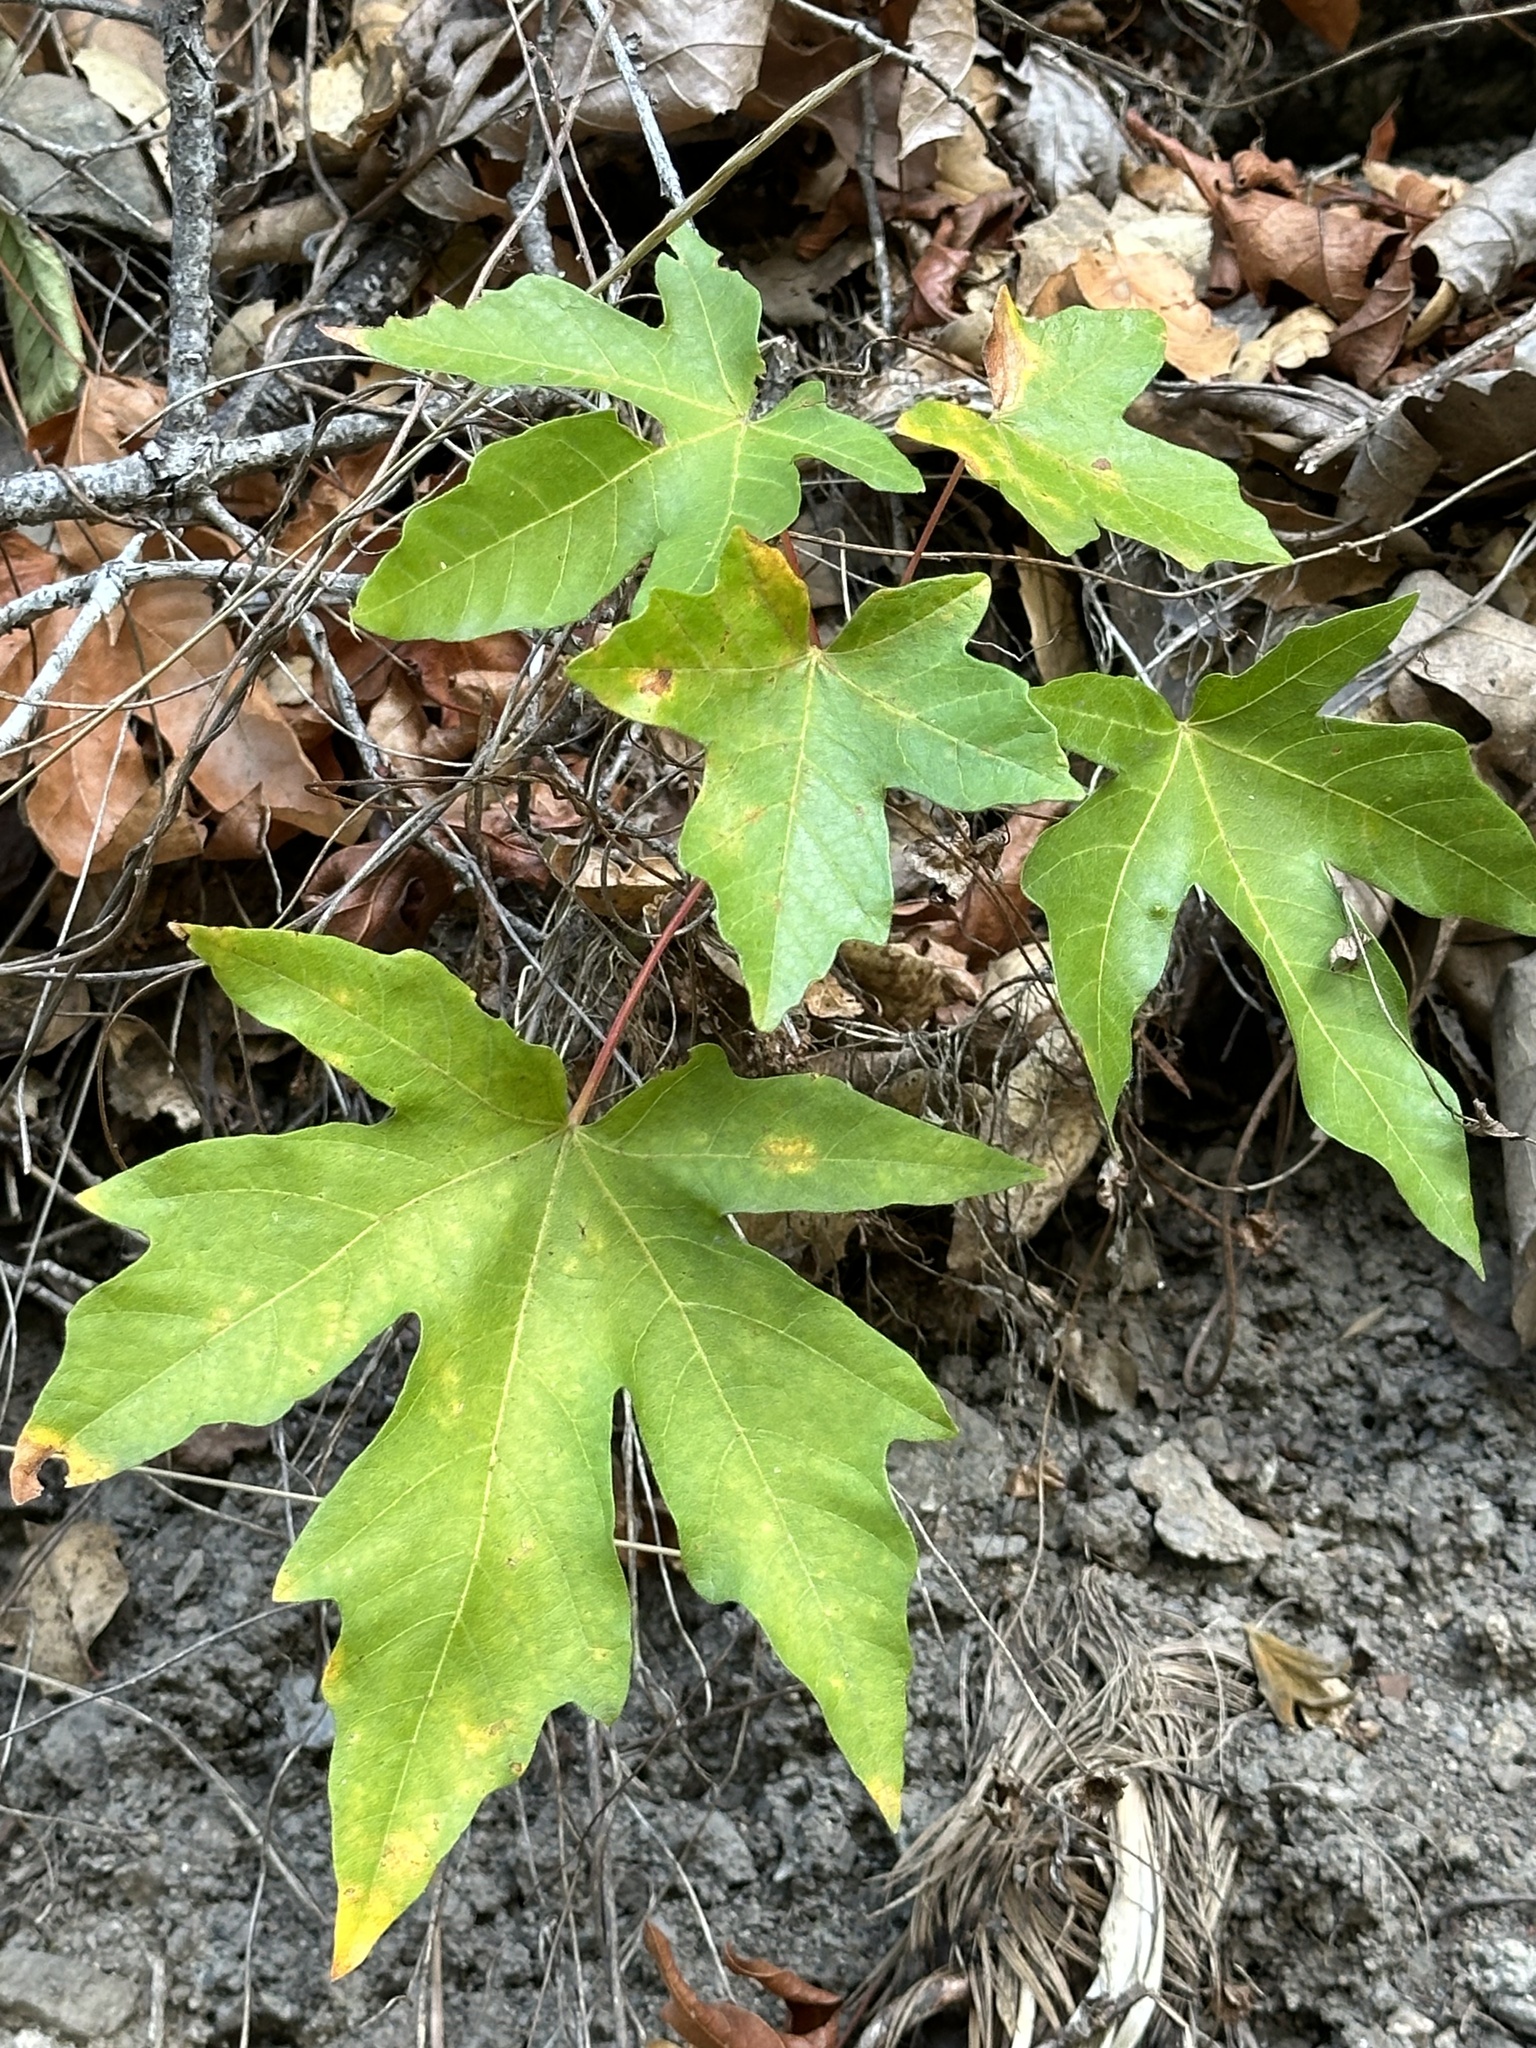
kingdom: Plantae
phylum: Tracheophyta
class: Magnoliopsida
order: Sapindales
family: Sapindaceae
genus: Acer
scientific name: Acer macrophyllum
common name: Oregon maple
